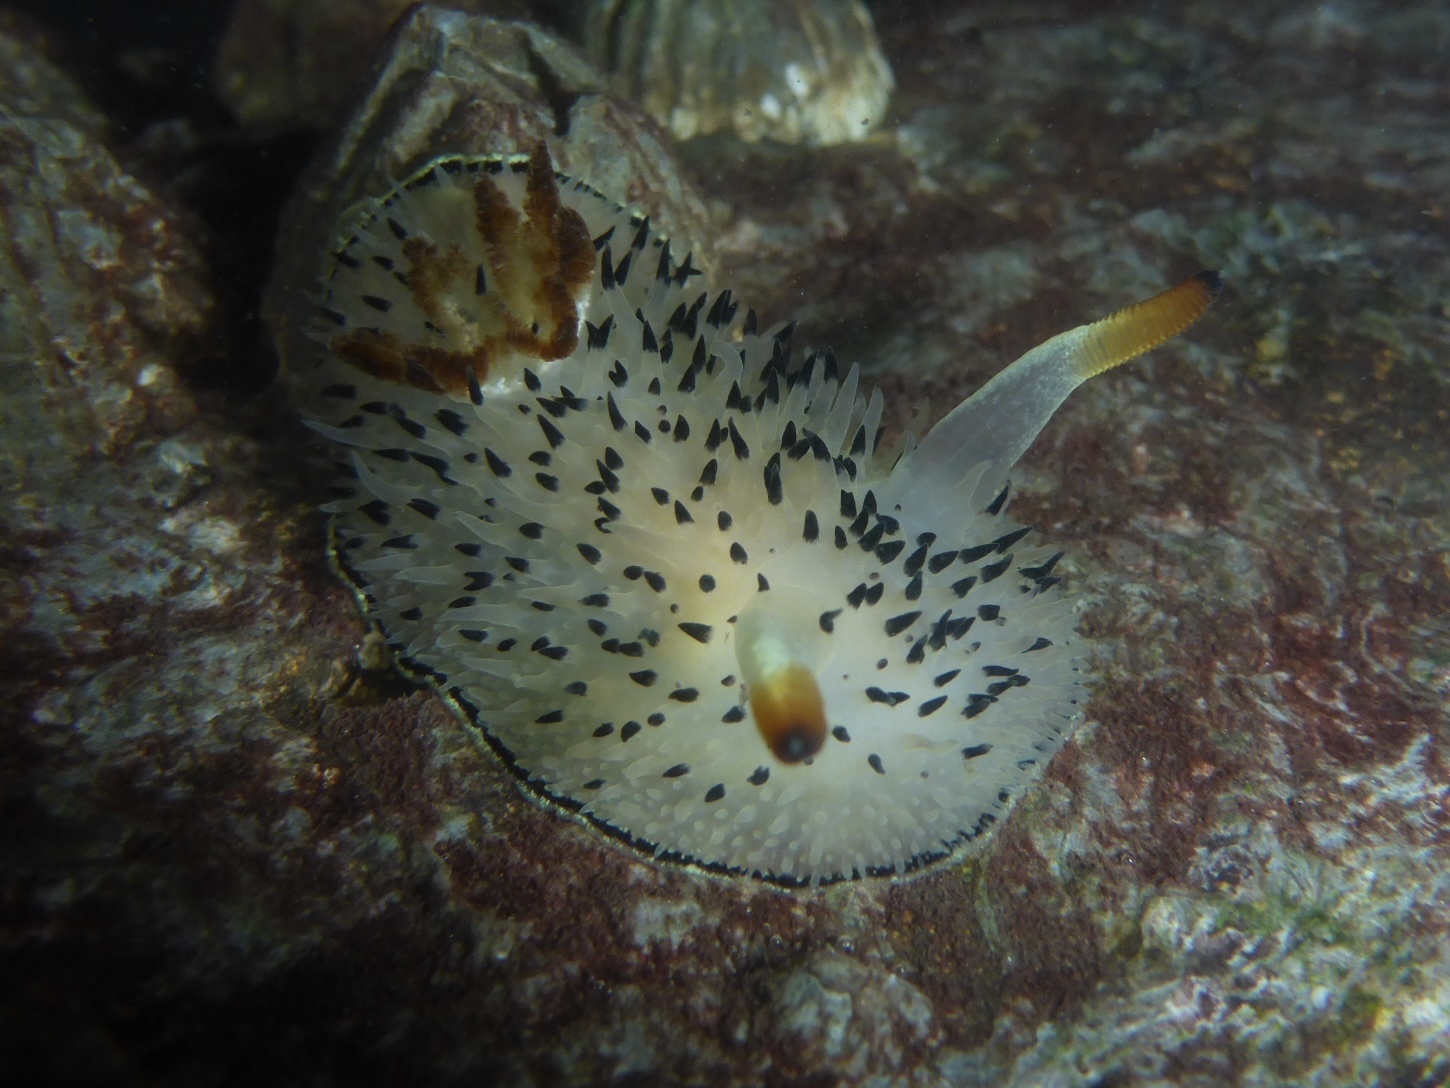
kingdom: Animalia
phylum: Mollusca
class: Gastropoda
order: Nudibranchia
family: Onchidorididae
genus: Acanthodoris
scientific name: Acanthodoris rhodoceras
